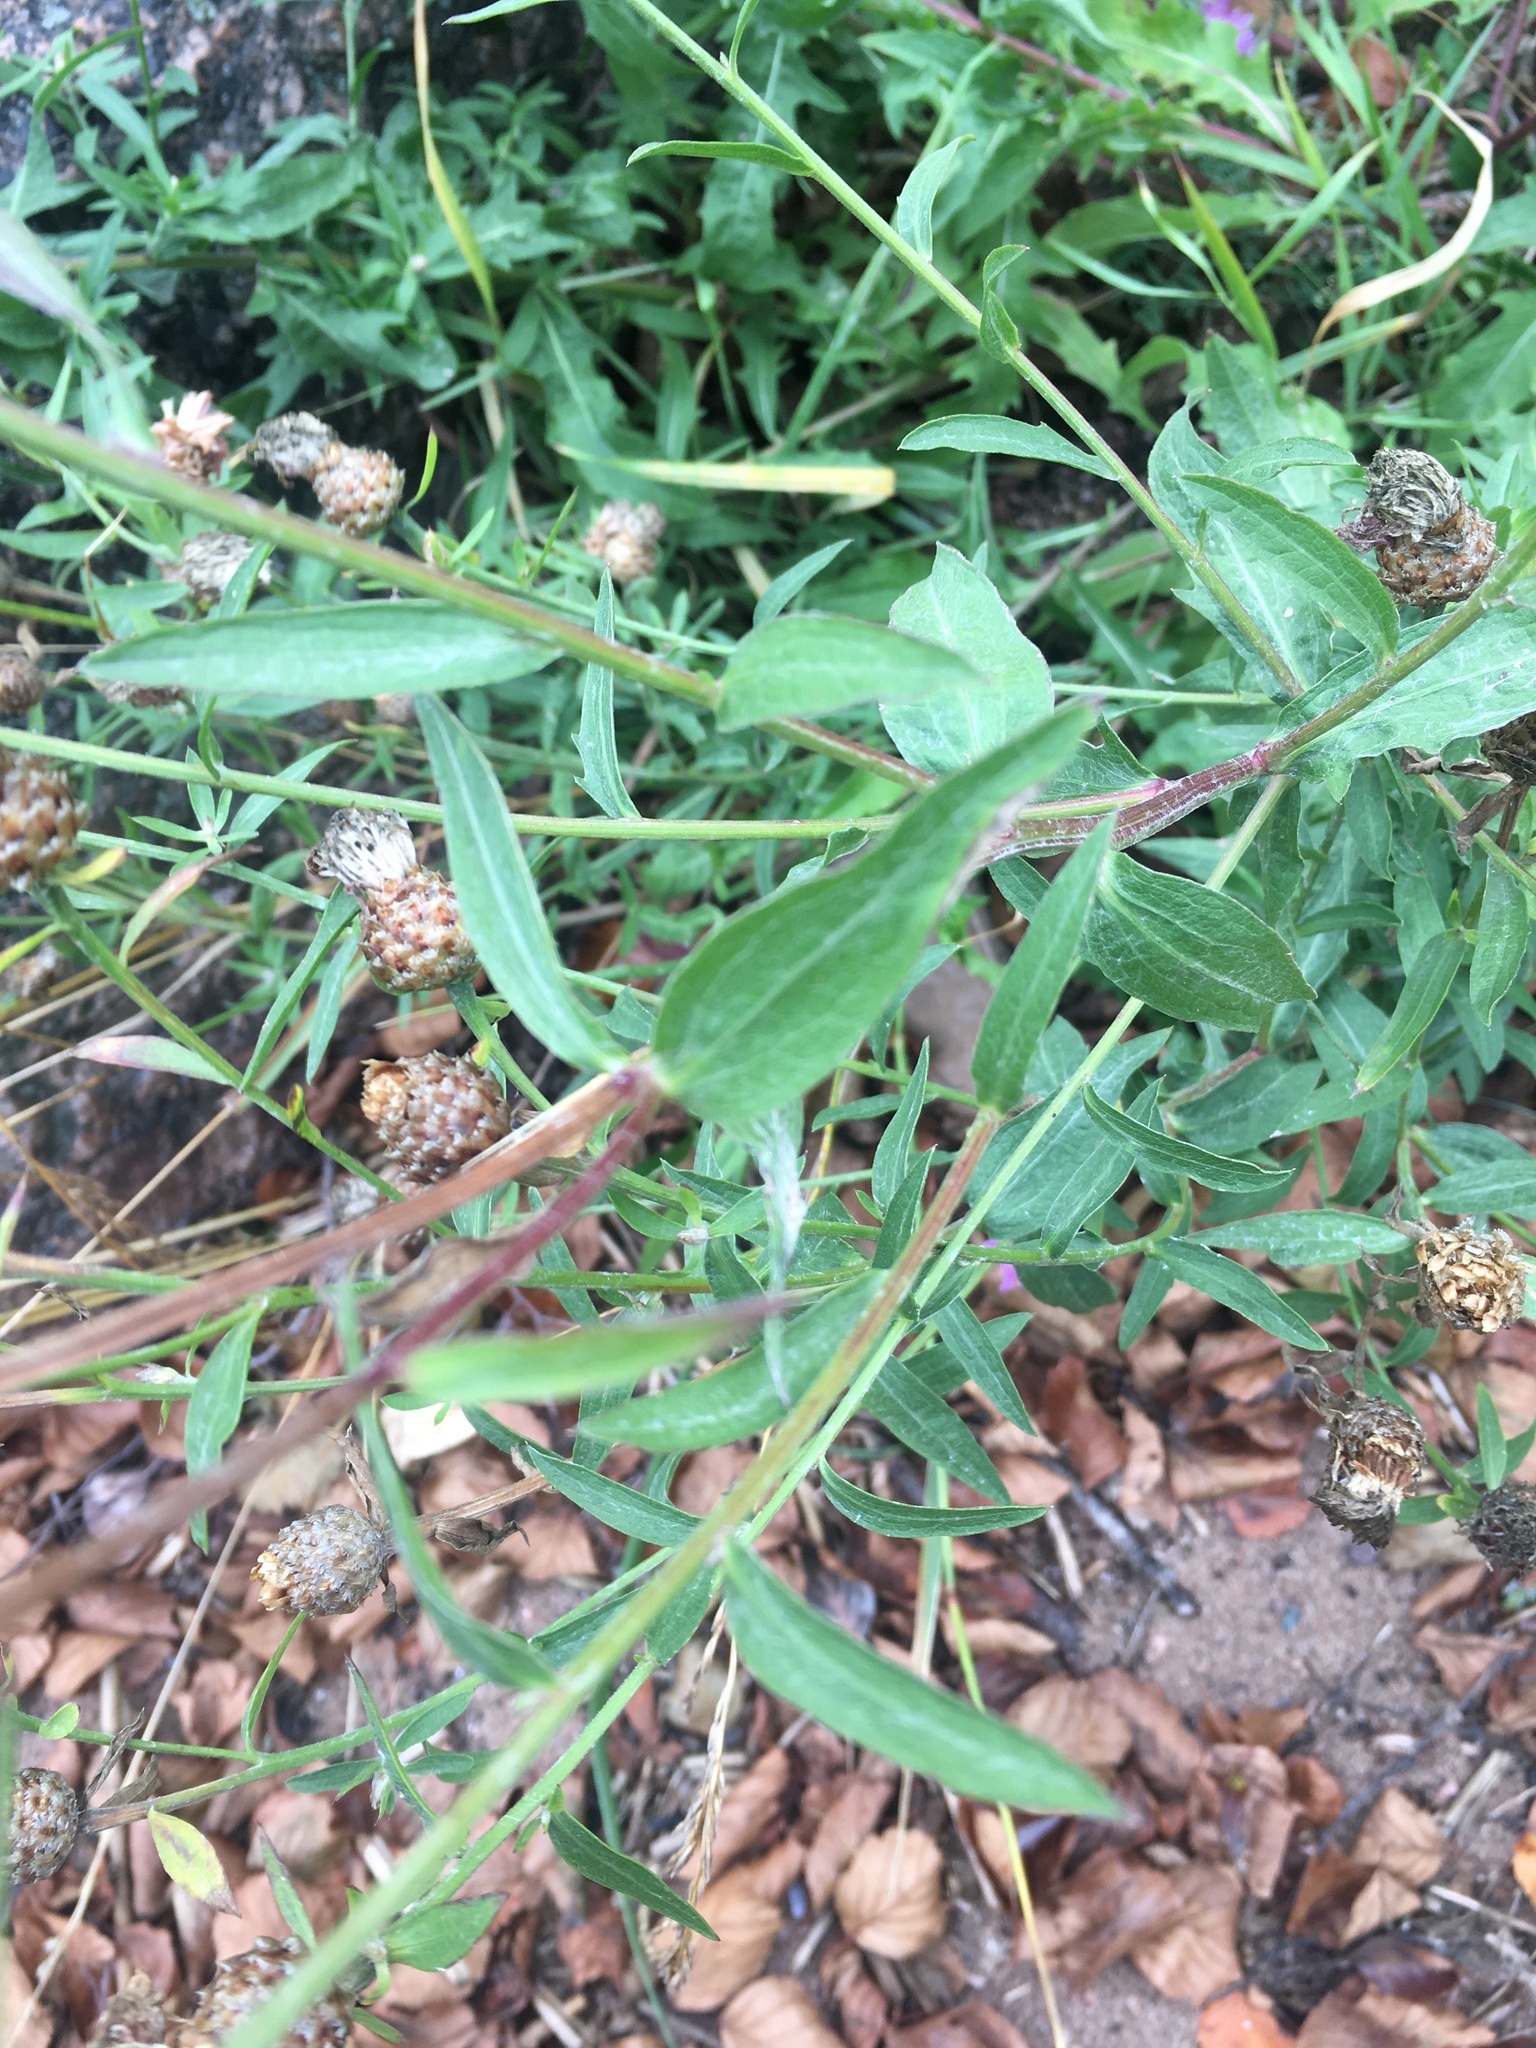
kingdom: Plantae
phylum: Tracheophyta
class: Magnoliopsida
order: Asterales
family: Asteraceae
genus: Centaurea
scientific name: Centaurea jacea
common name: Brown knapweed
